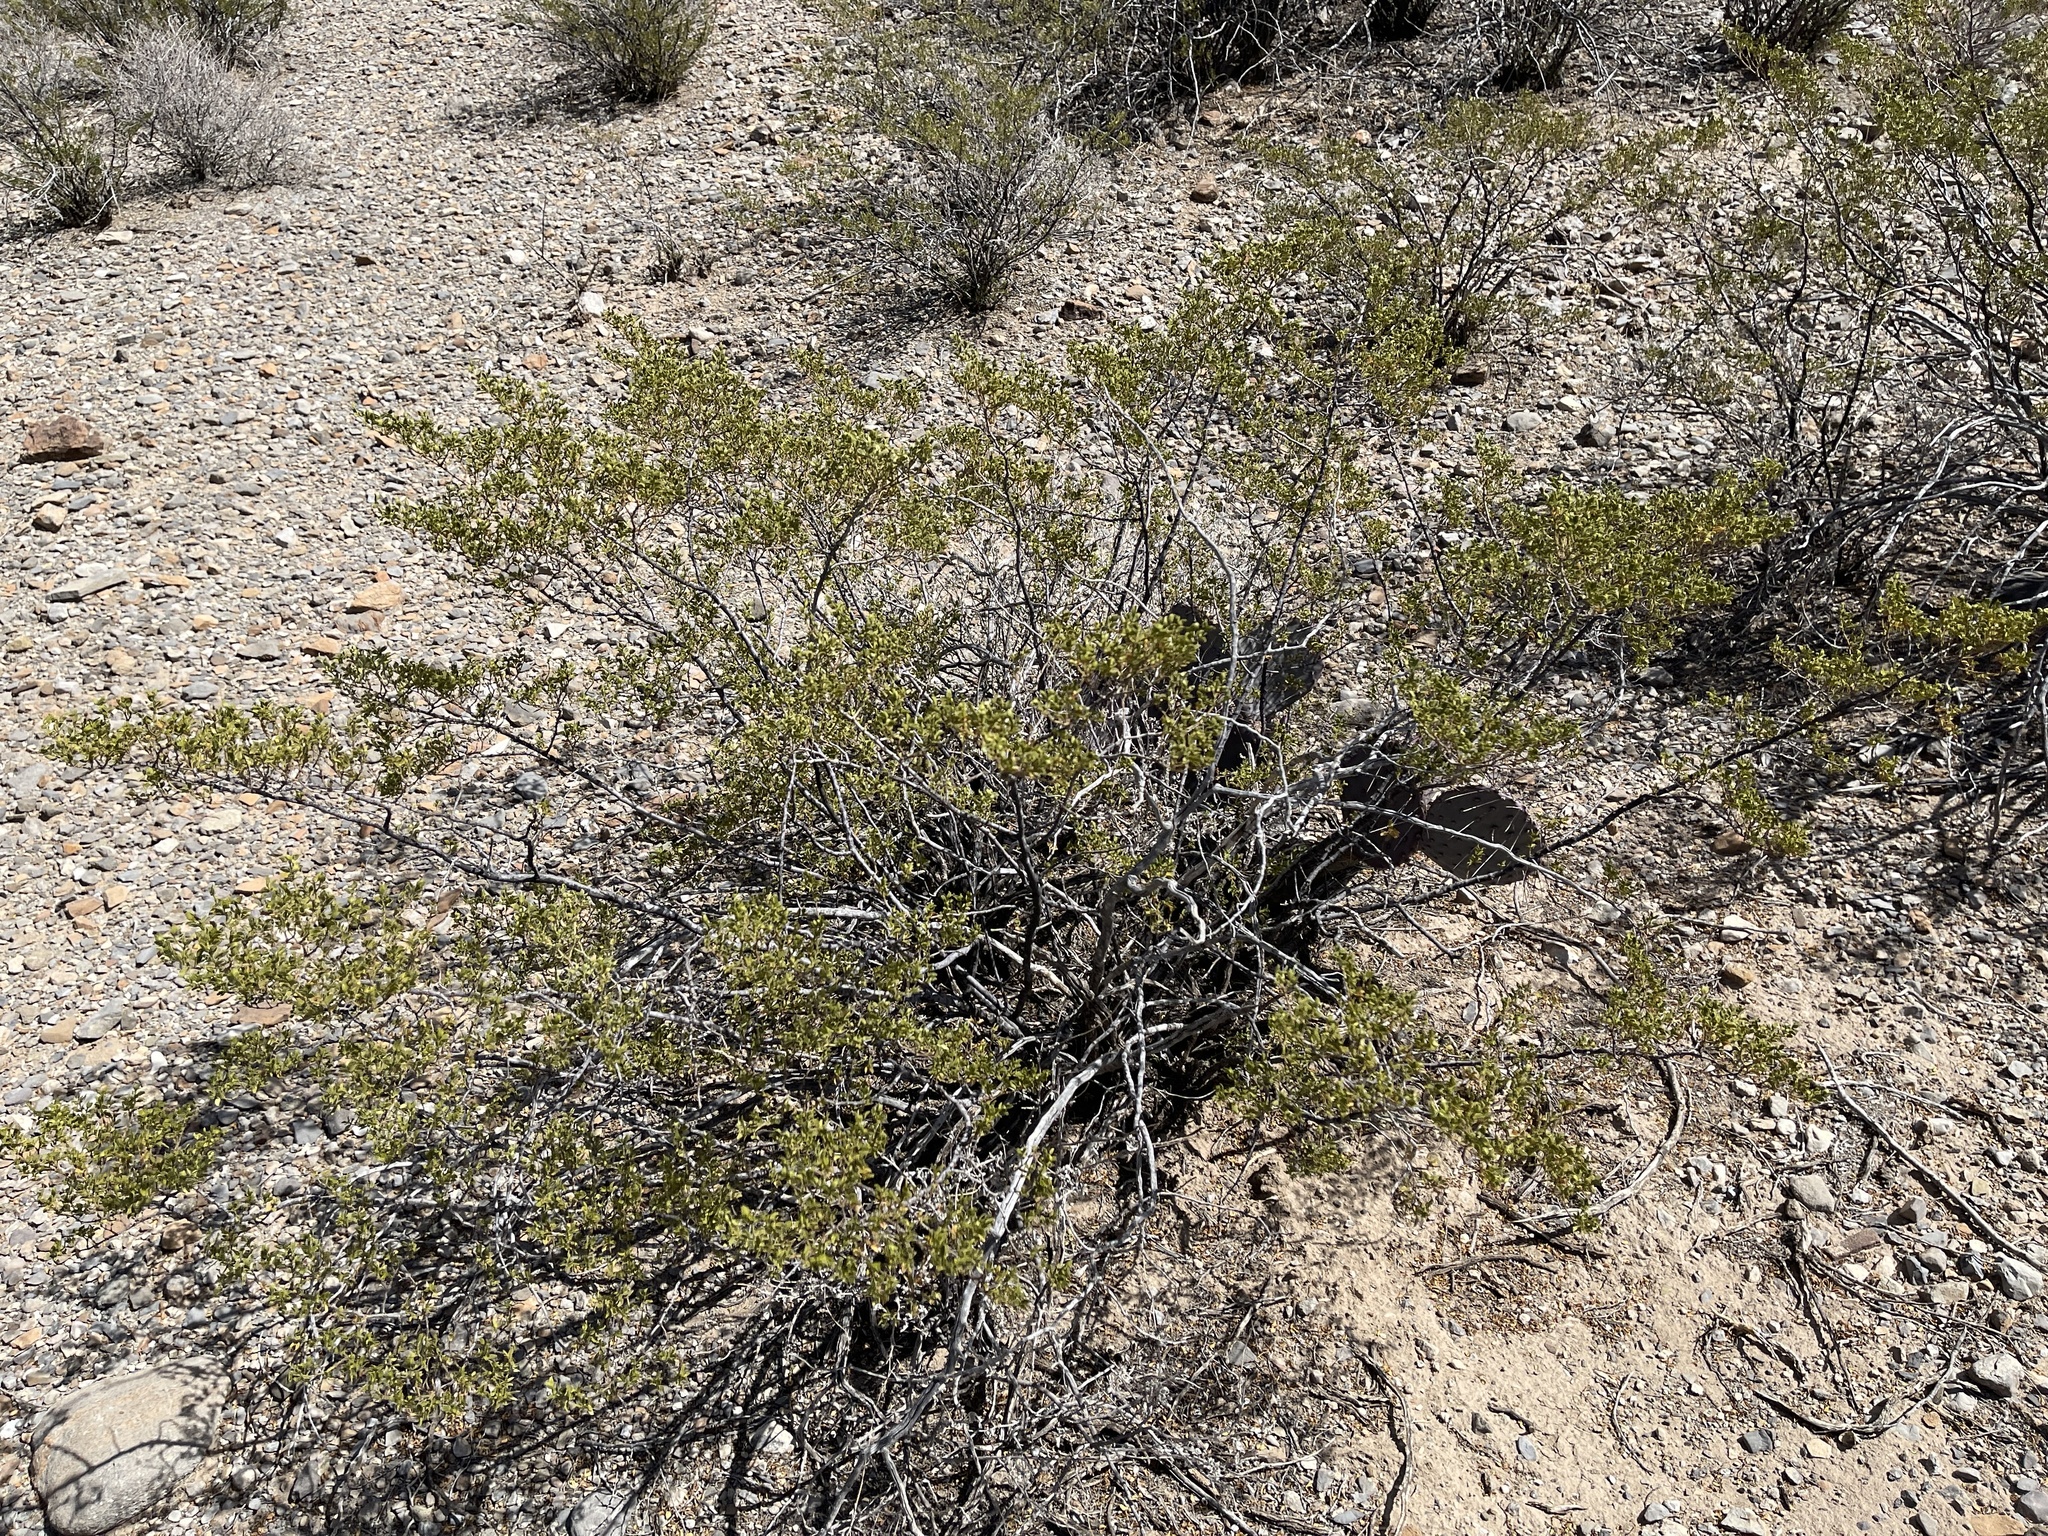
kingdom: Plantae
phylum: Tracheophyta
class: Magnoliopsida
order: Zygophyllales
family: Zygophyllaceae
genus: Larrea
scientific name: Larrea tridentata
